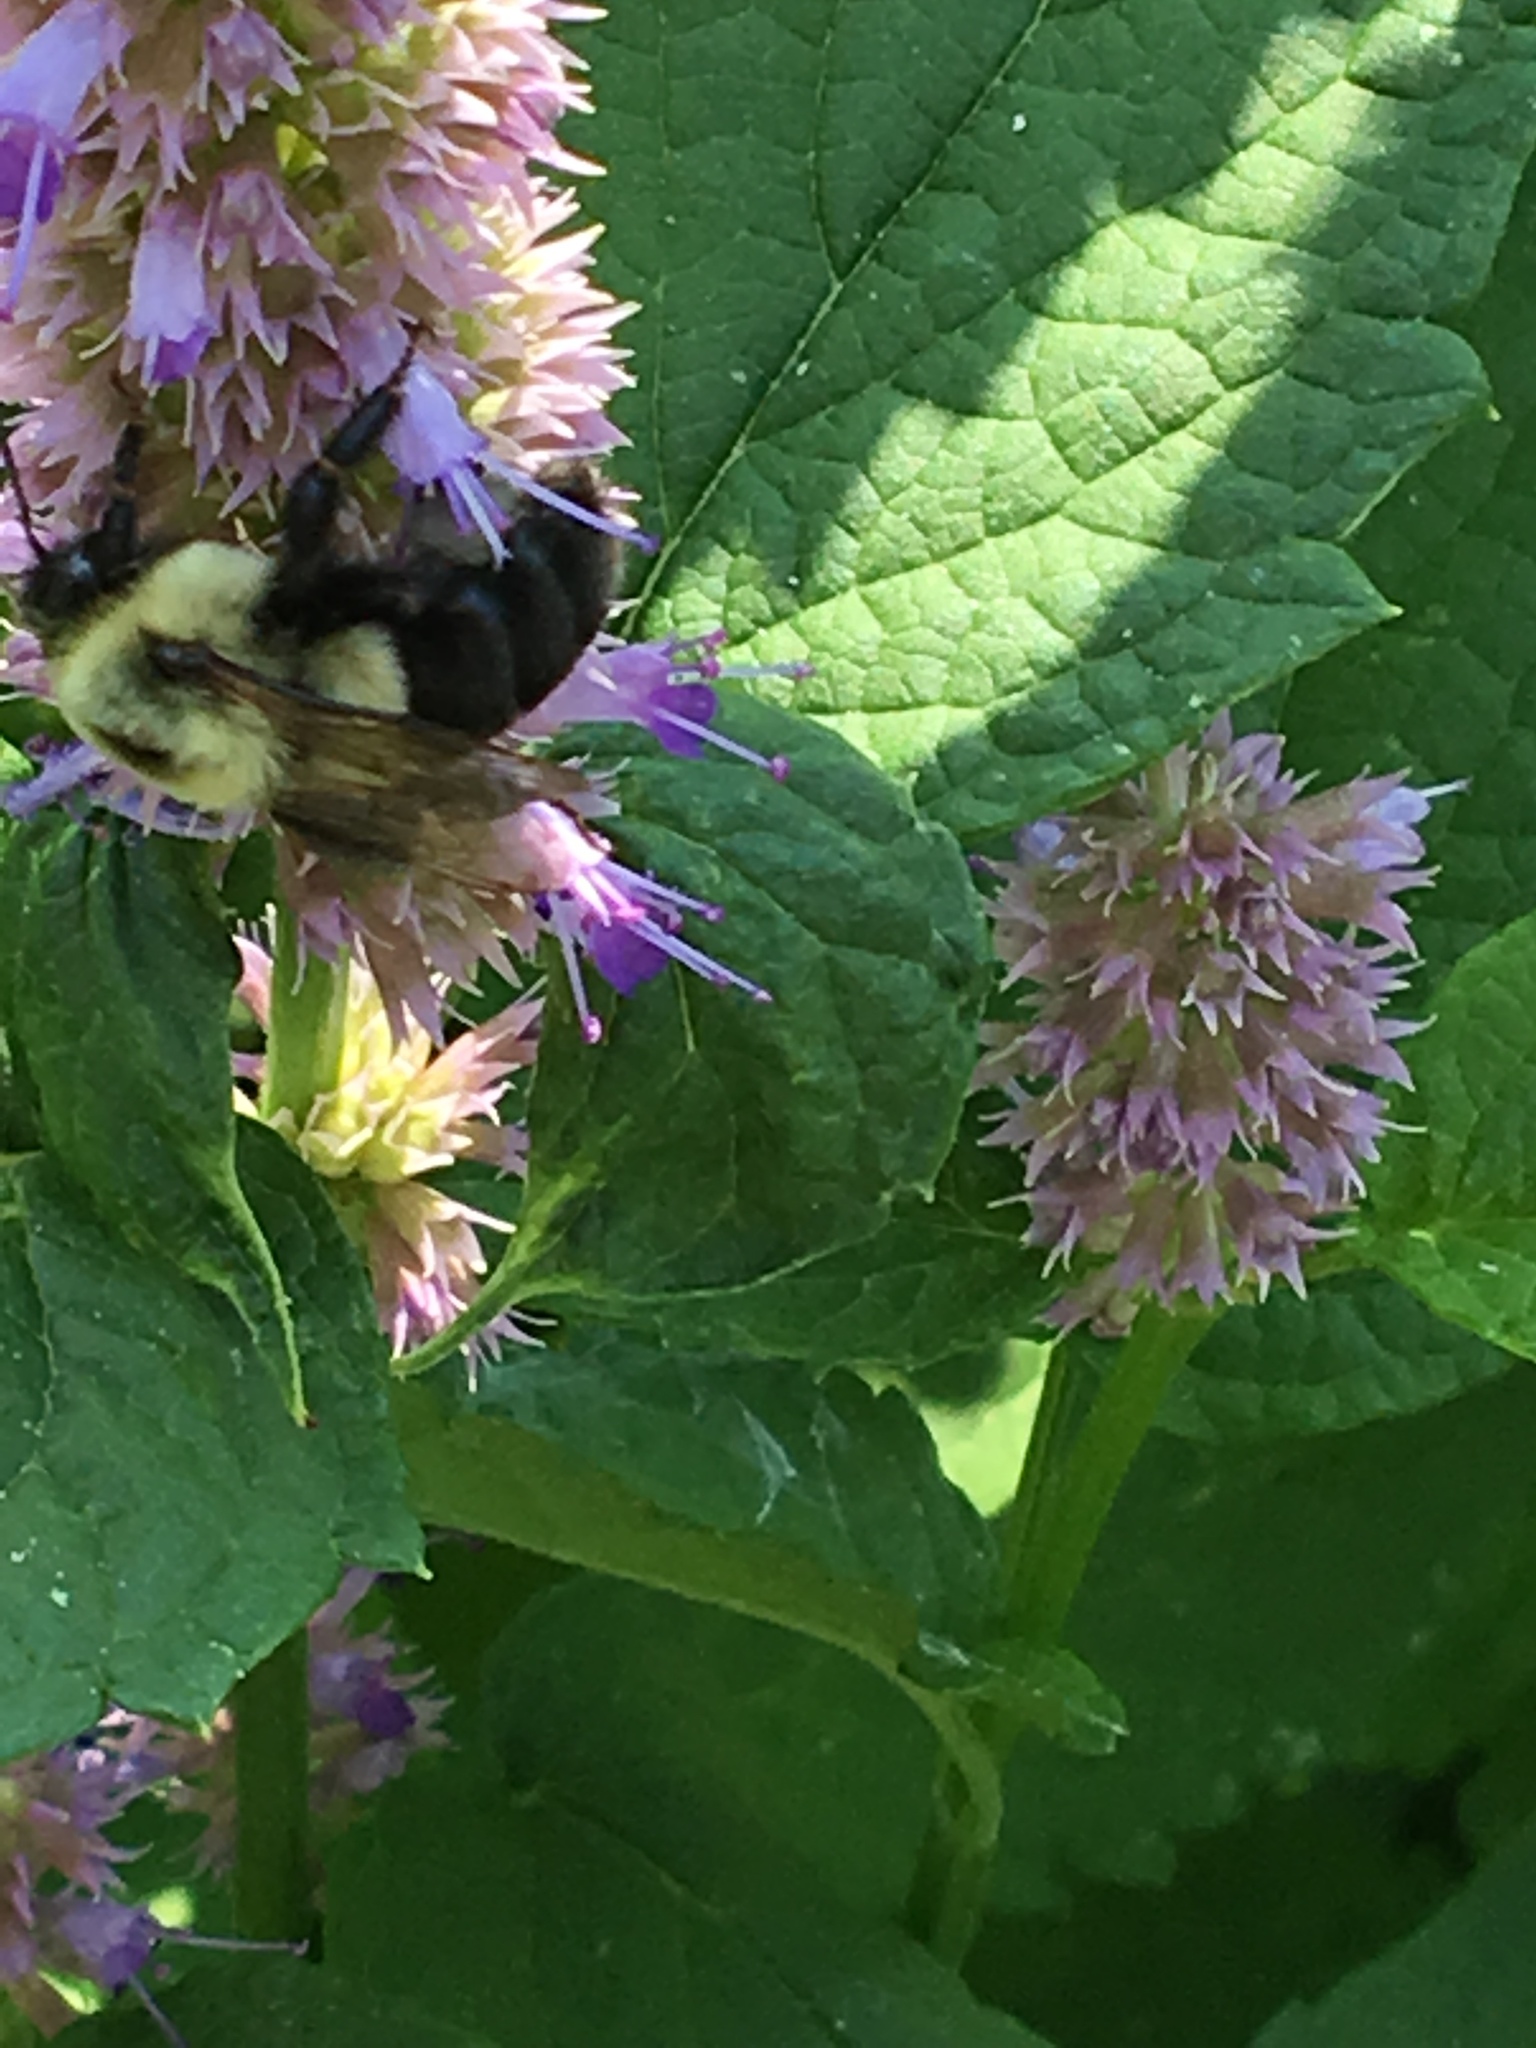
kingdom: Animalia
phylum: Arthropoda
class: Insecta
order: Hymenoptera
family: Apidae
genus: Bombus
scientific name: Bombus impatiens
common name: Common eastern bumble bee
